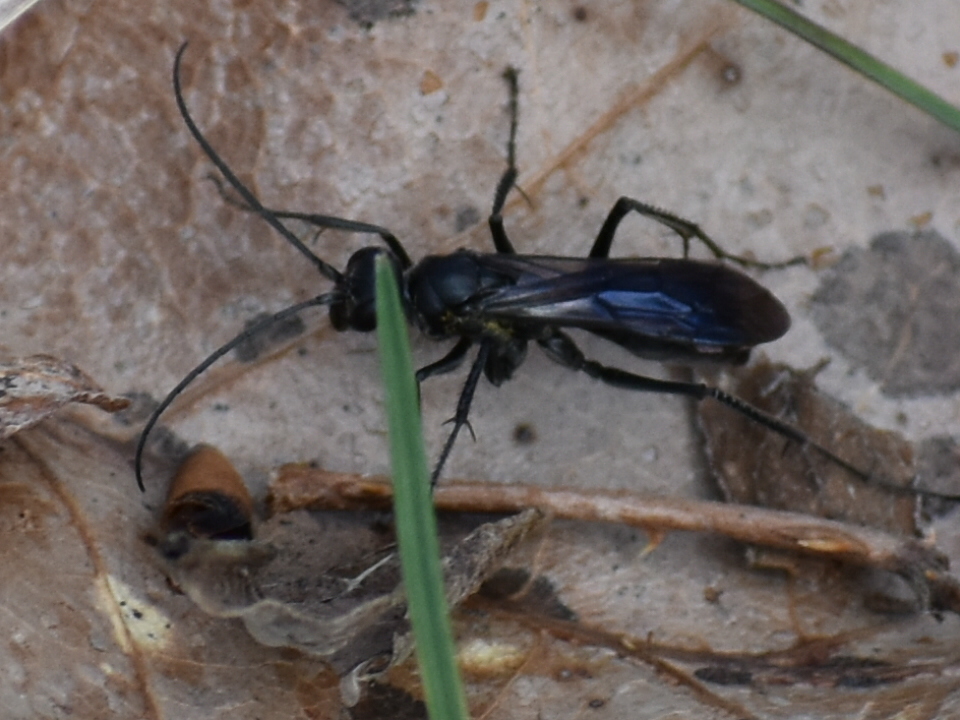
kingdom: Animalia
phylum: Arthropoda
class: Insecta
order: Hymenoptera
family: Pompilidae
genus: Priocnemis
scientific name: Priocnemis minorata
